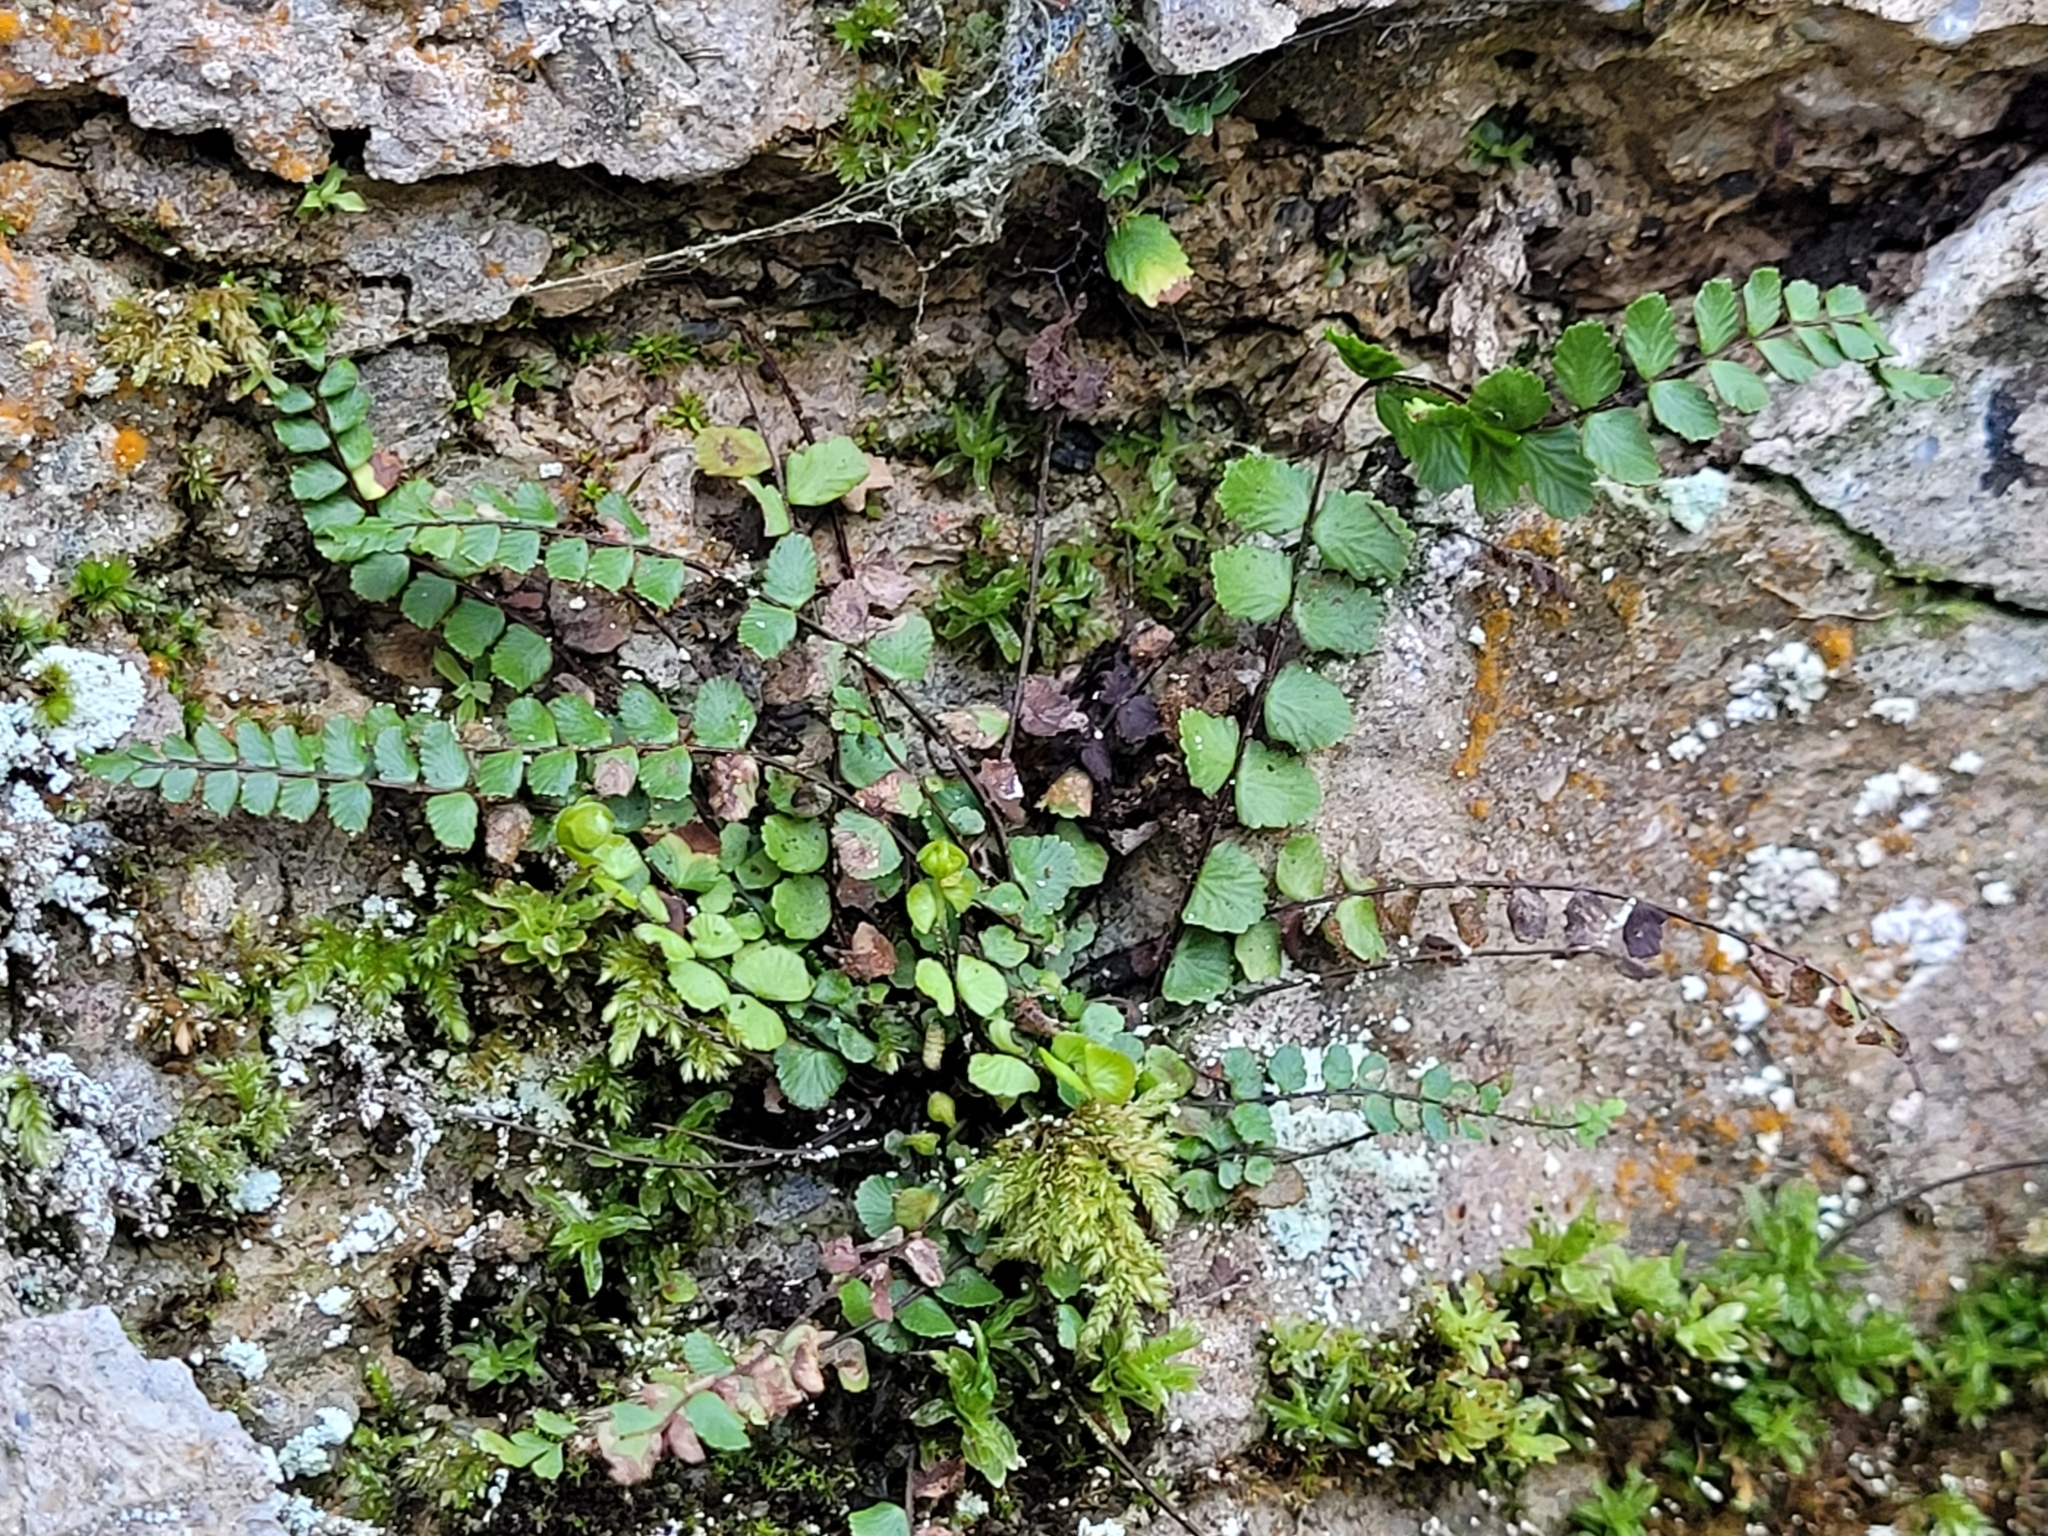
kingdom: Plantae
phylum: Tracheophyta
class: Polypodiopsida
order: Polypodiales
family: Aspleniaceae
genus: Asplenium
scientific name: Asplenium trichomanes
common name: Maidenhair spleenwort
